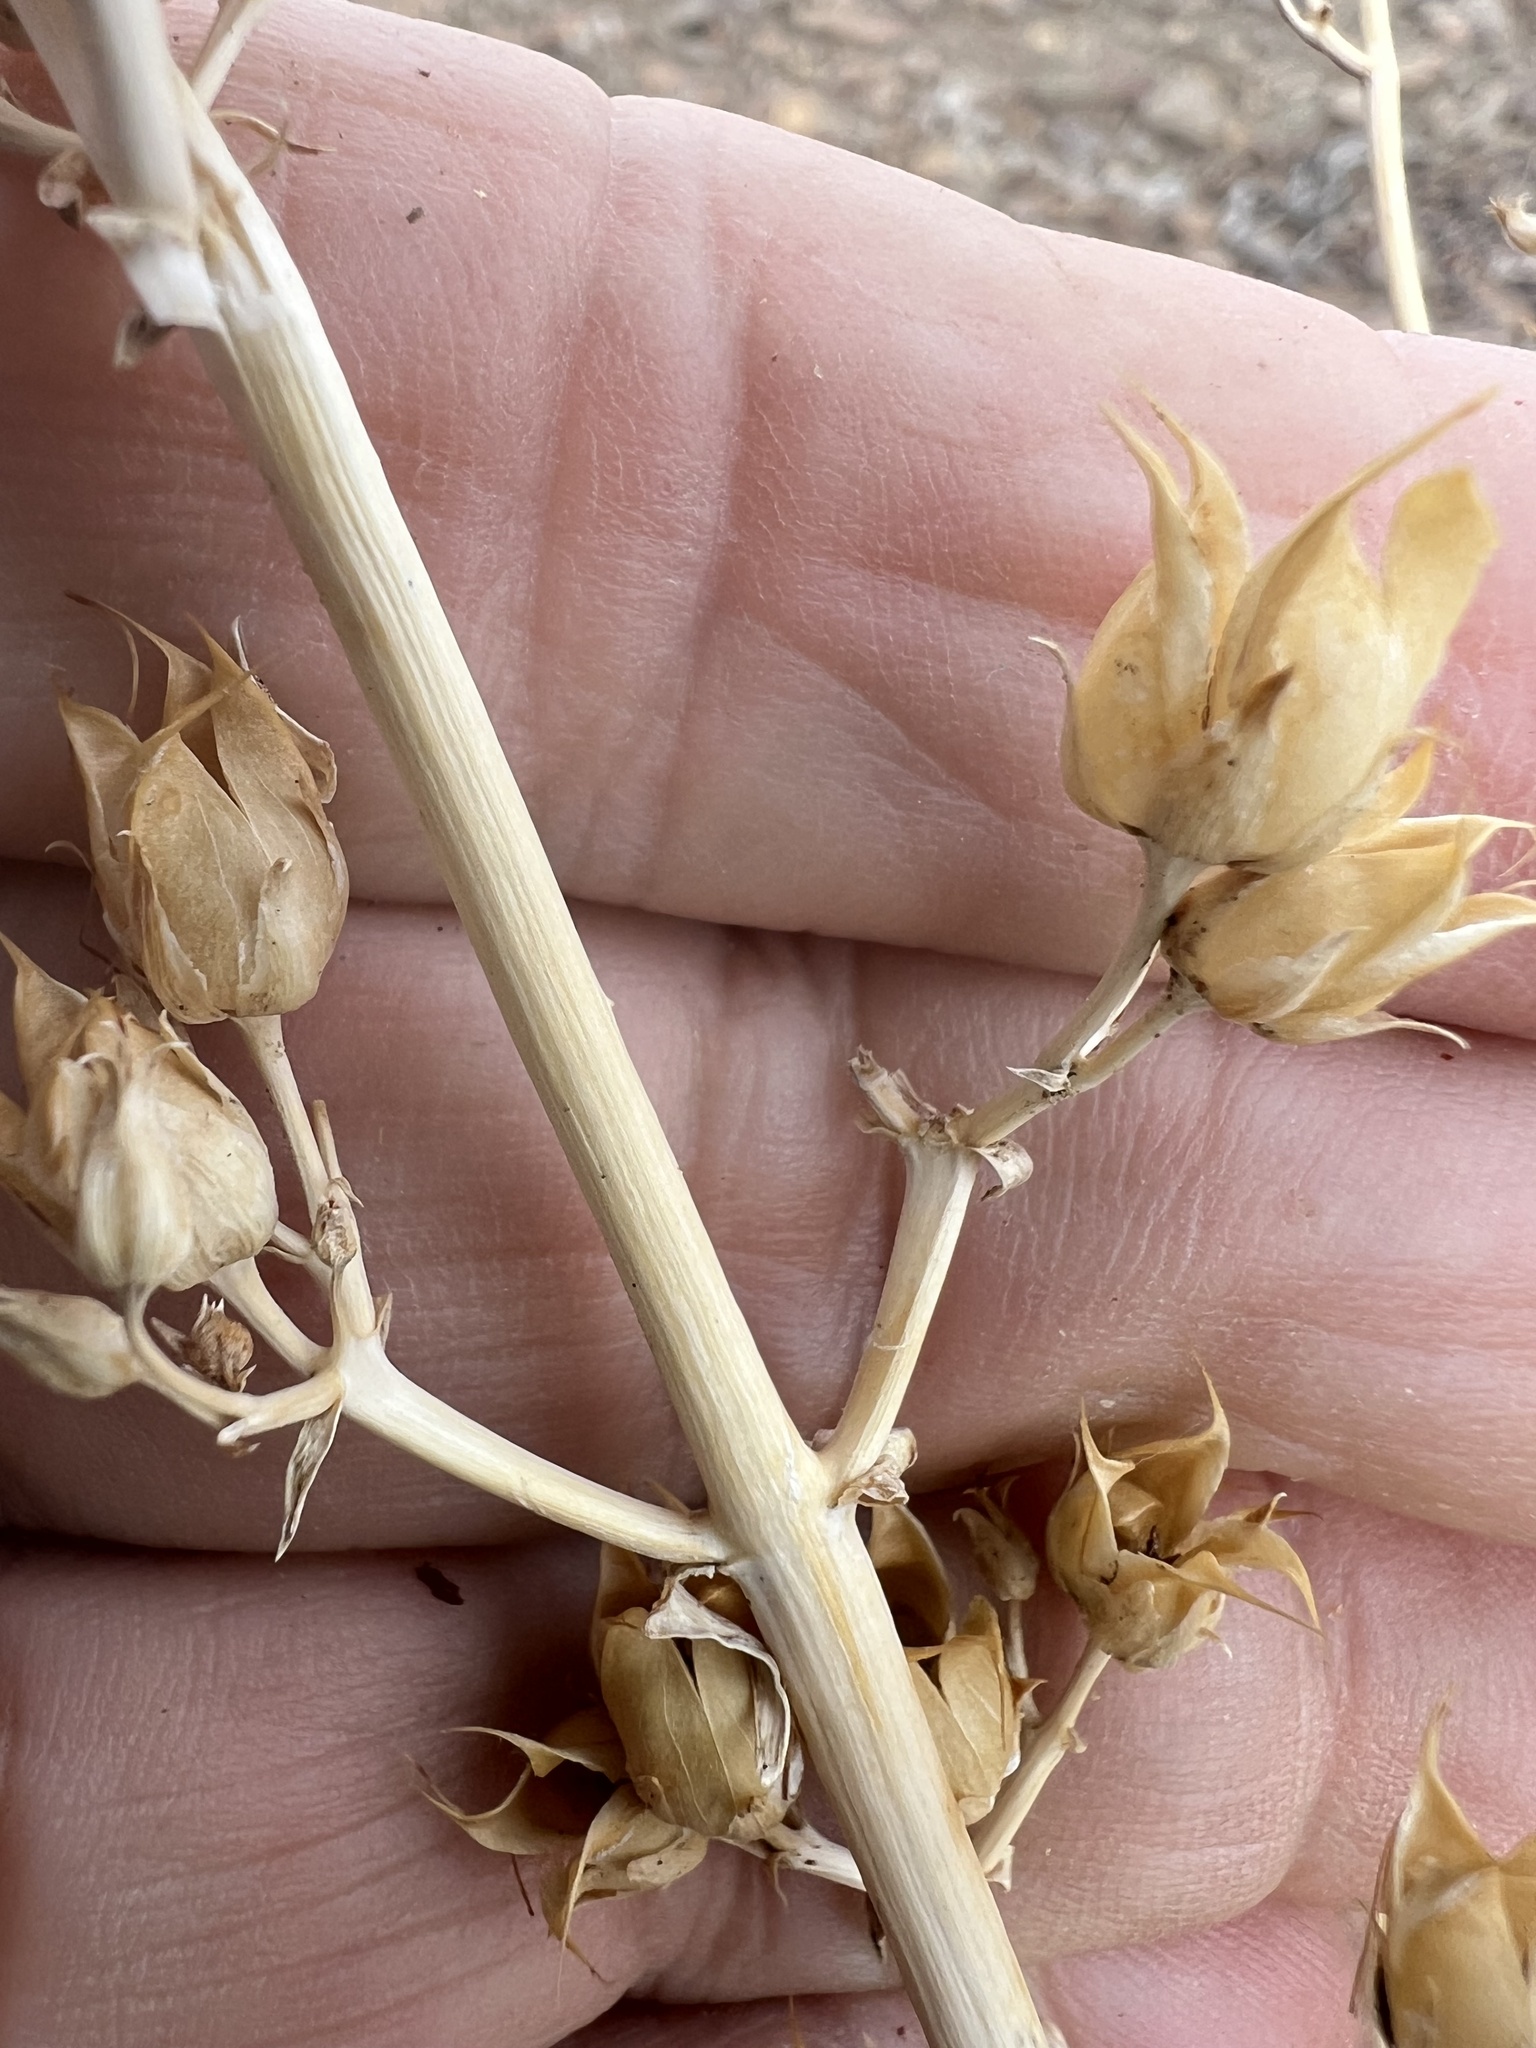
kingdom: Plantae
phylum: Tracheophyta
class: Magnoliopsida
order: Lamiales
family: Plantaginaceae
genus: Penstemon
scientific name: Penstemon patens
